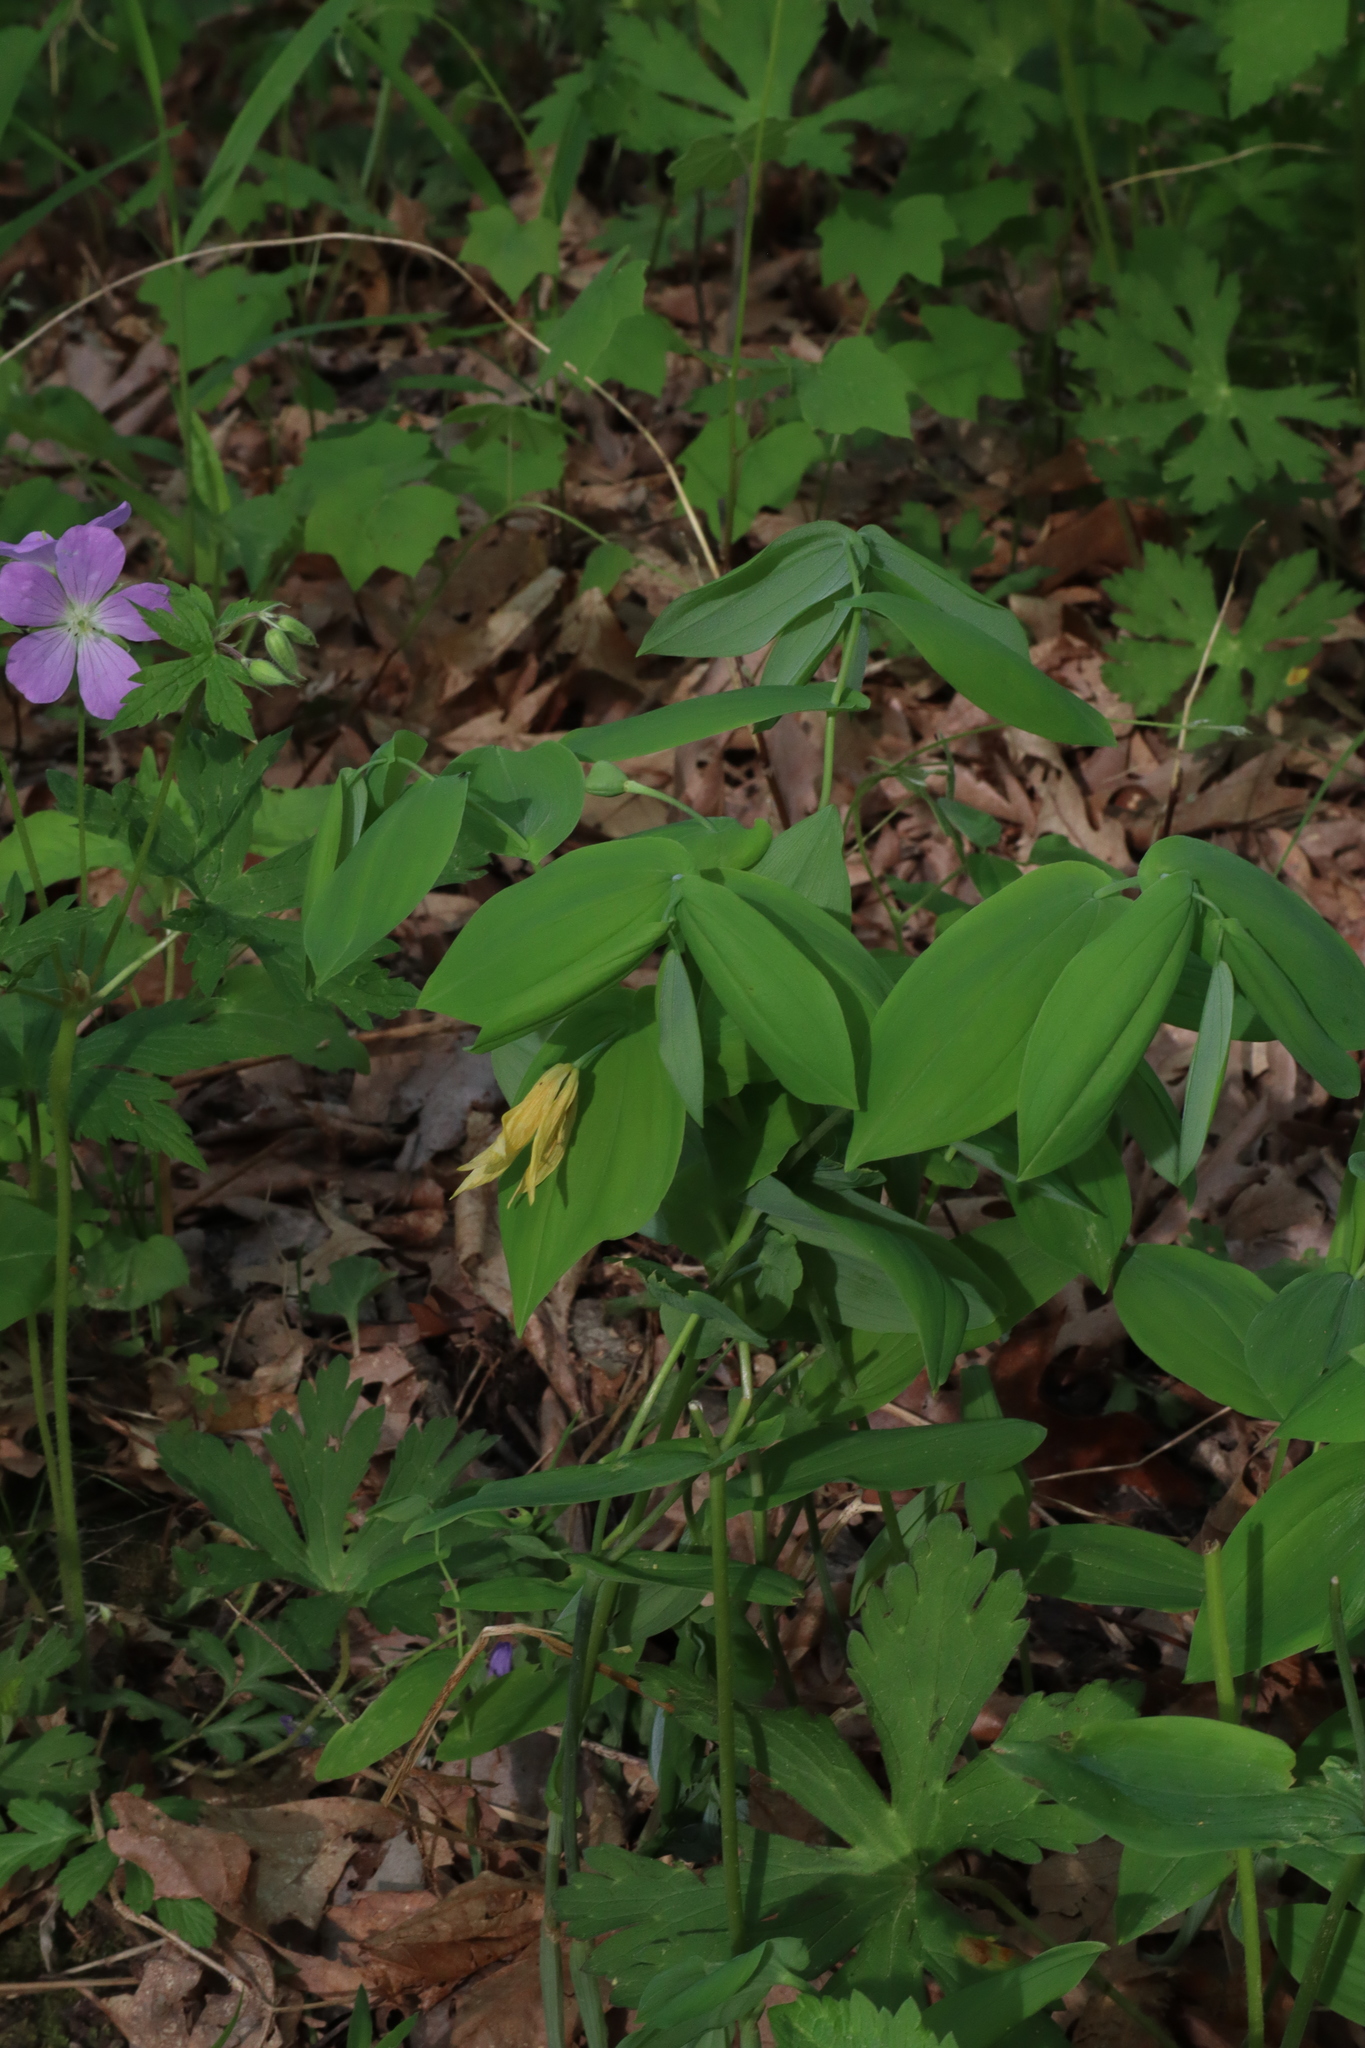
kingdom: Plantae
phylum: Tracheophyta
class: Liliopsida
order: Liliales
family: Colchicaceae
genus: Uvularia
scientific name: Uvularia grandiflora
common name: Bellwort
